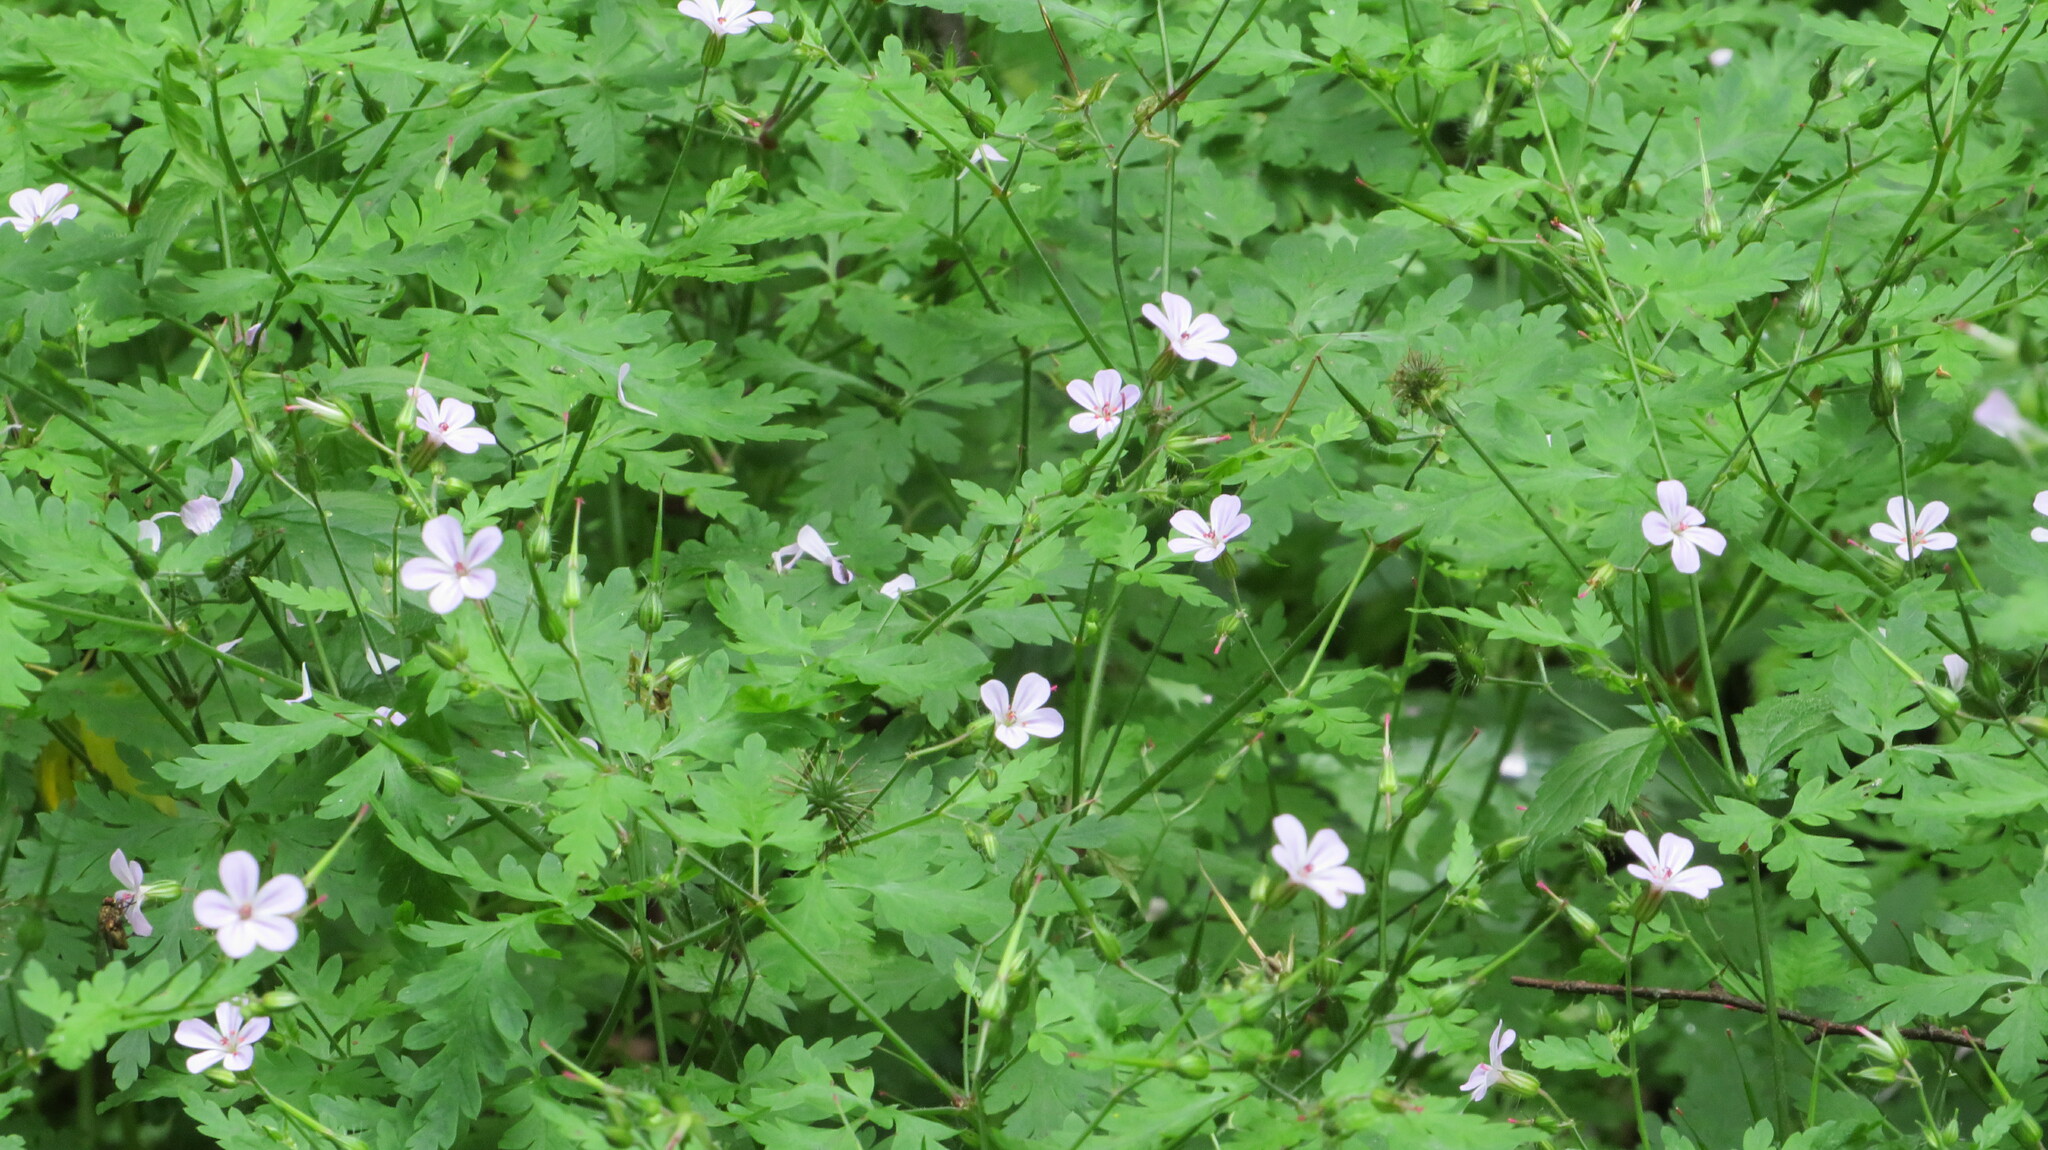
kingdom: Plantae
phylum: Tracheophyta
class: Magnoliopsida
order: Geraniales
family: Geraniaceae
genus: Geranium
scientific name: Geranium robertianum
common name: Herb-robert
